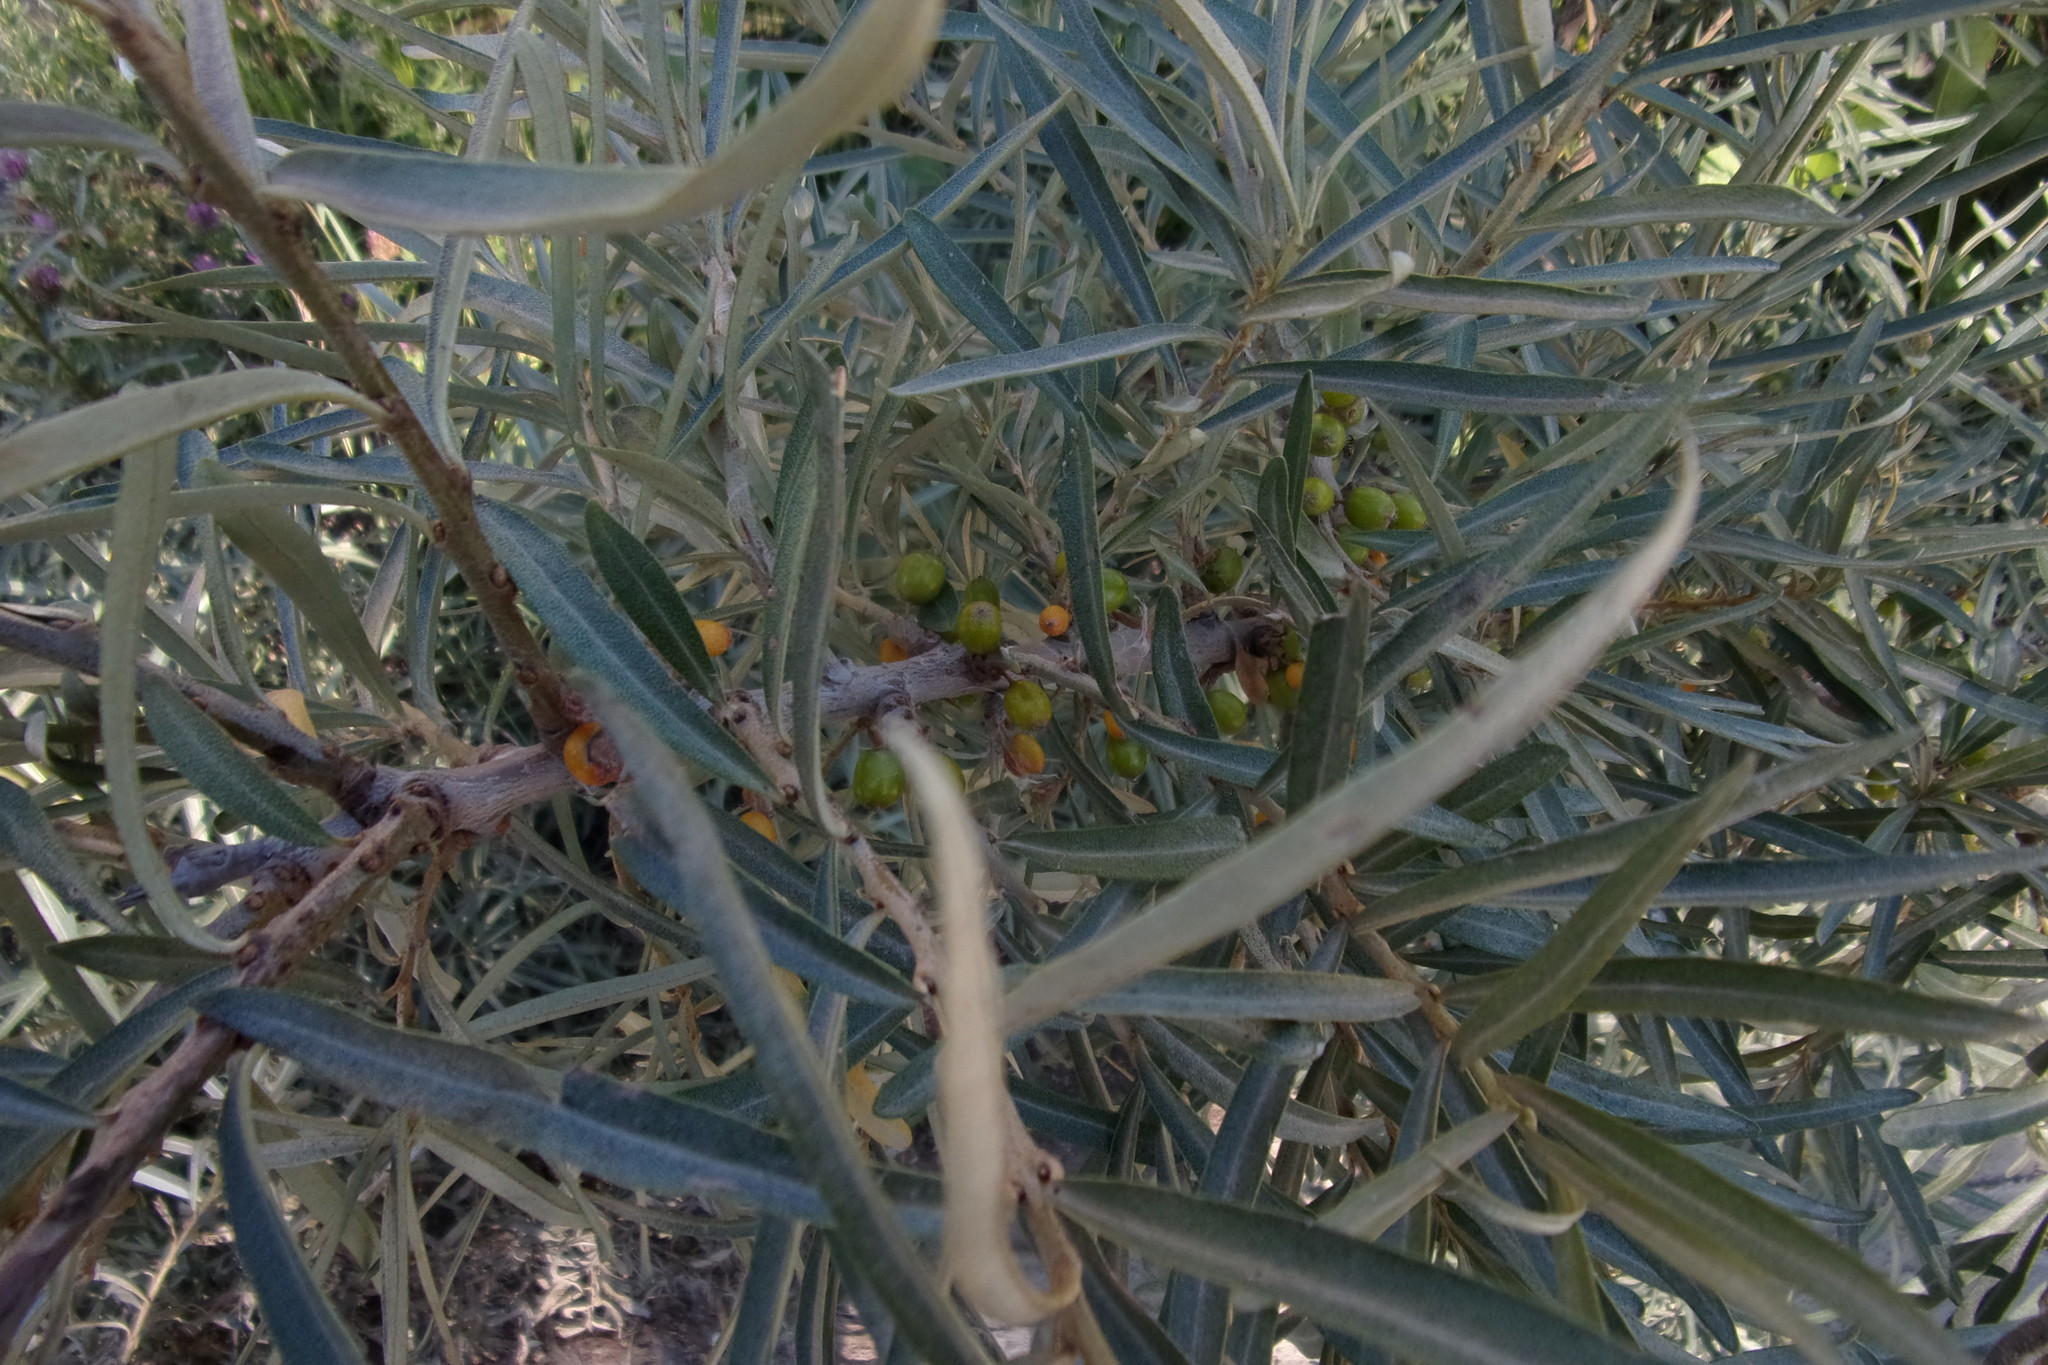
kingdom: Plantae
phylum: Tracheophyta
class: Magnoliopsida
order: Rosales
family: Elaeagnaceae
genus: Hippophae
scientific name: Hippophae rhamnoides
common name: Sea-buckthorn
